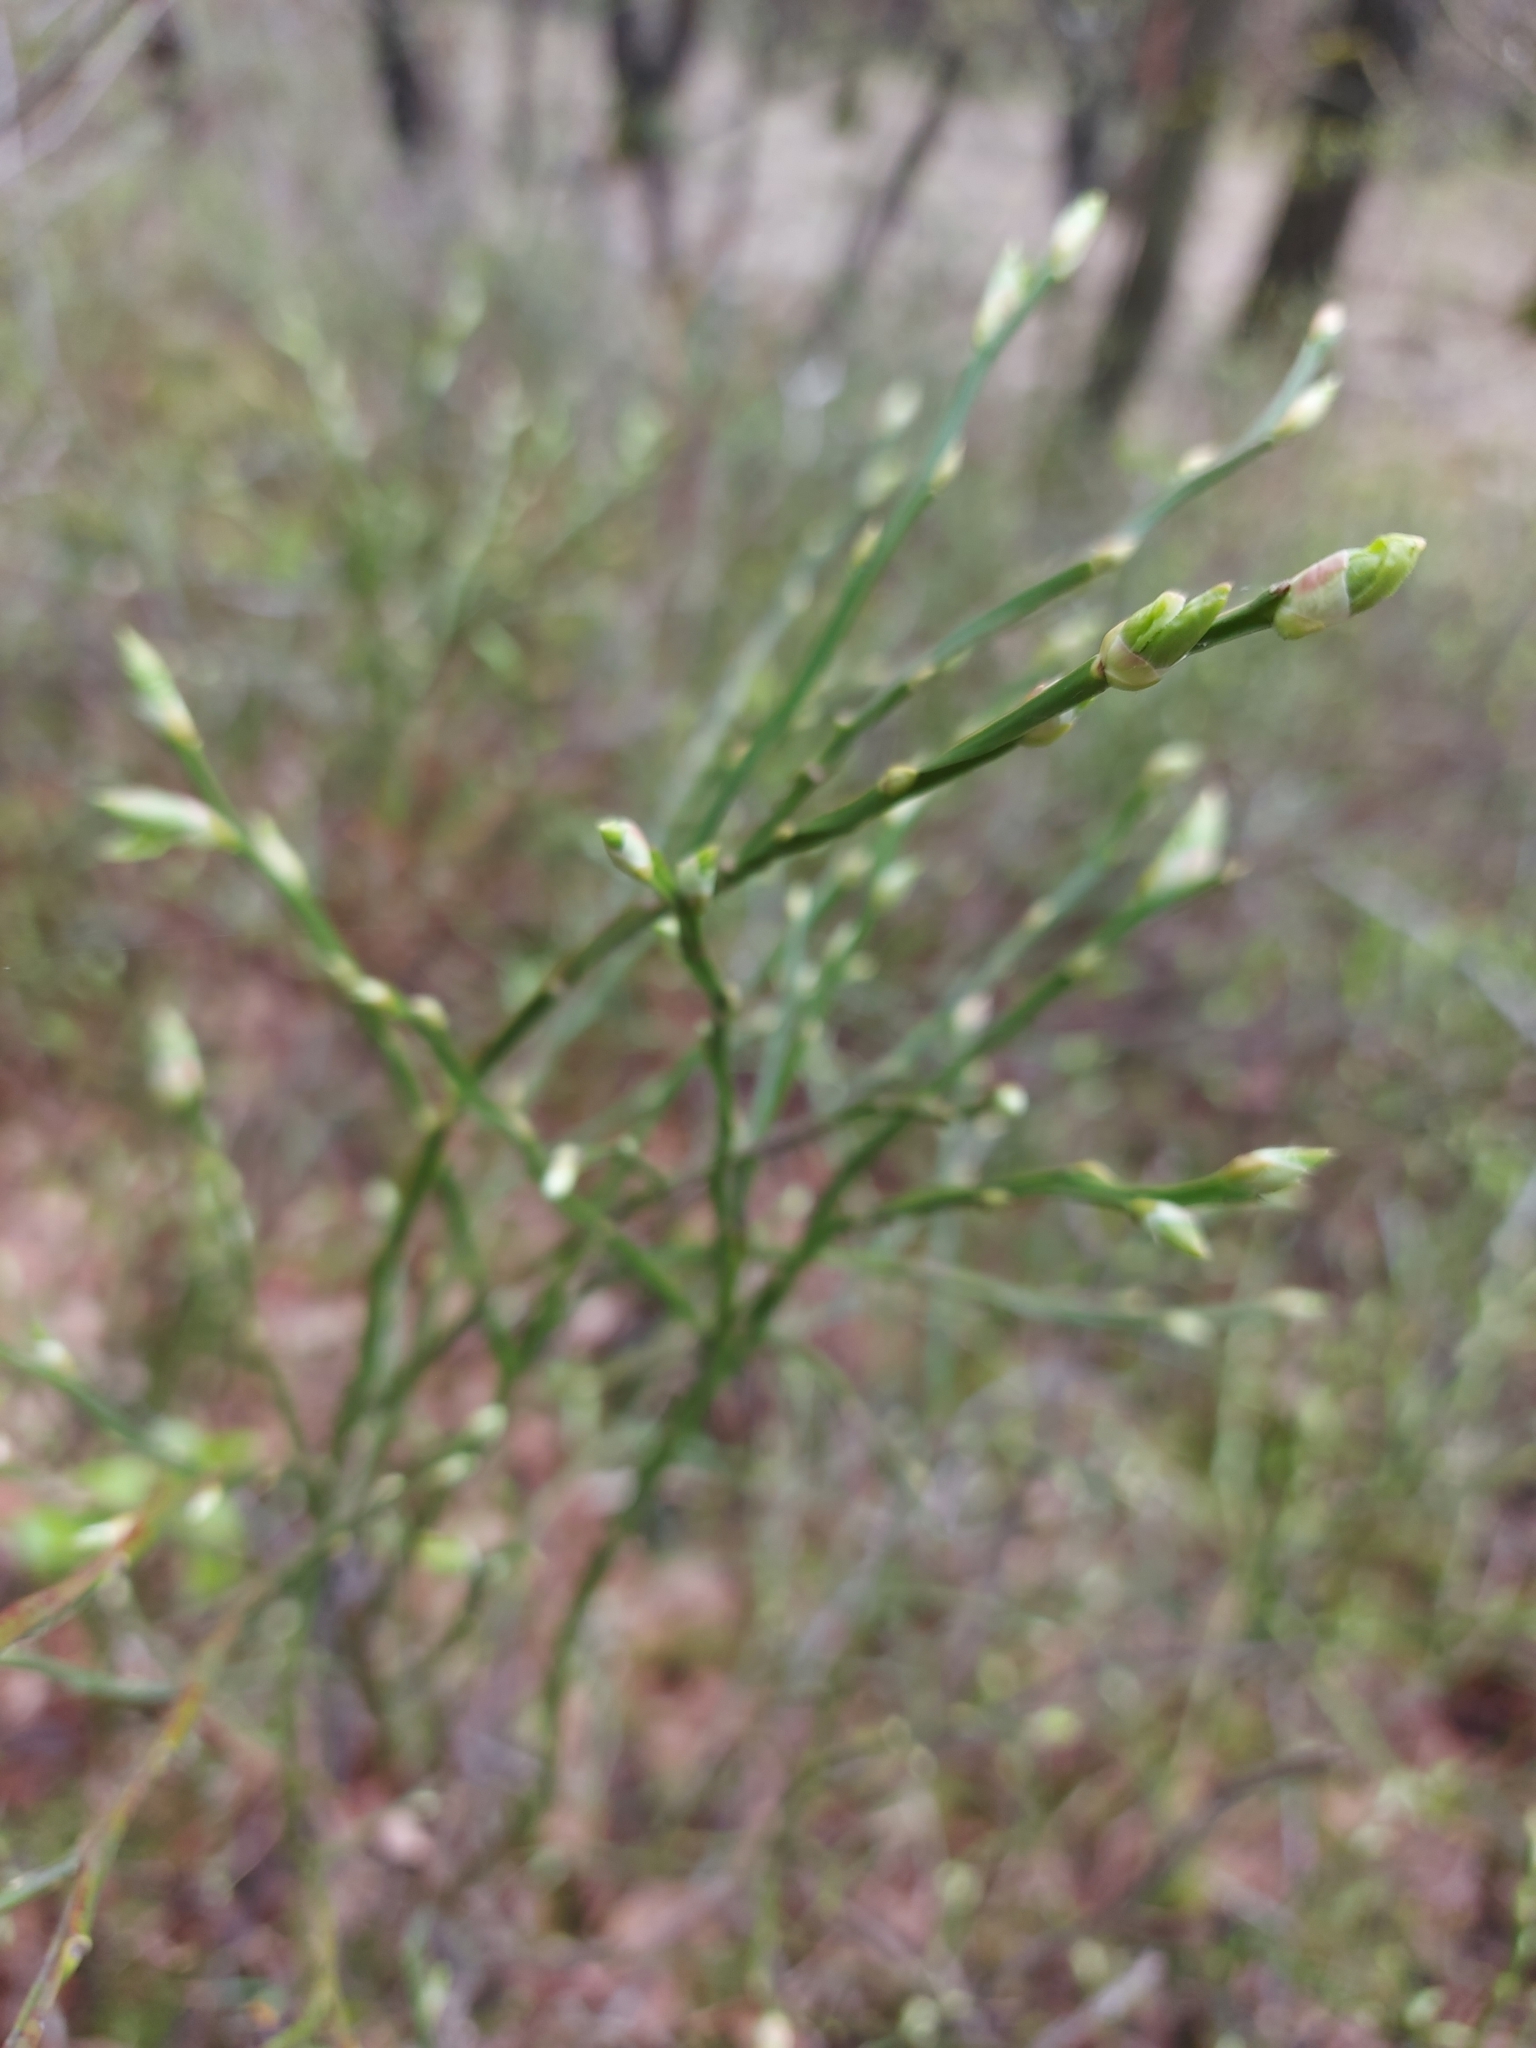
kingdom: Plantae
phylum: Tracheophyta
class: Magnoliopsida
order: Ericales
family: Ericaceae
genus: Vaccinium
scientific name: Vaccinium myrtillus
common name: Bilberry
